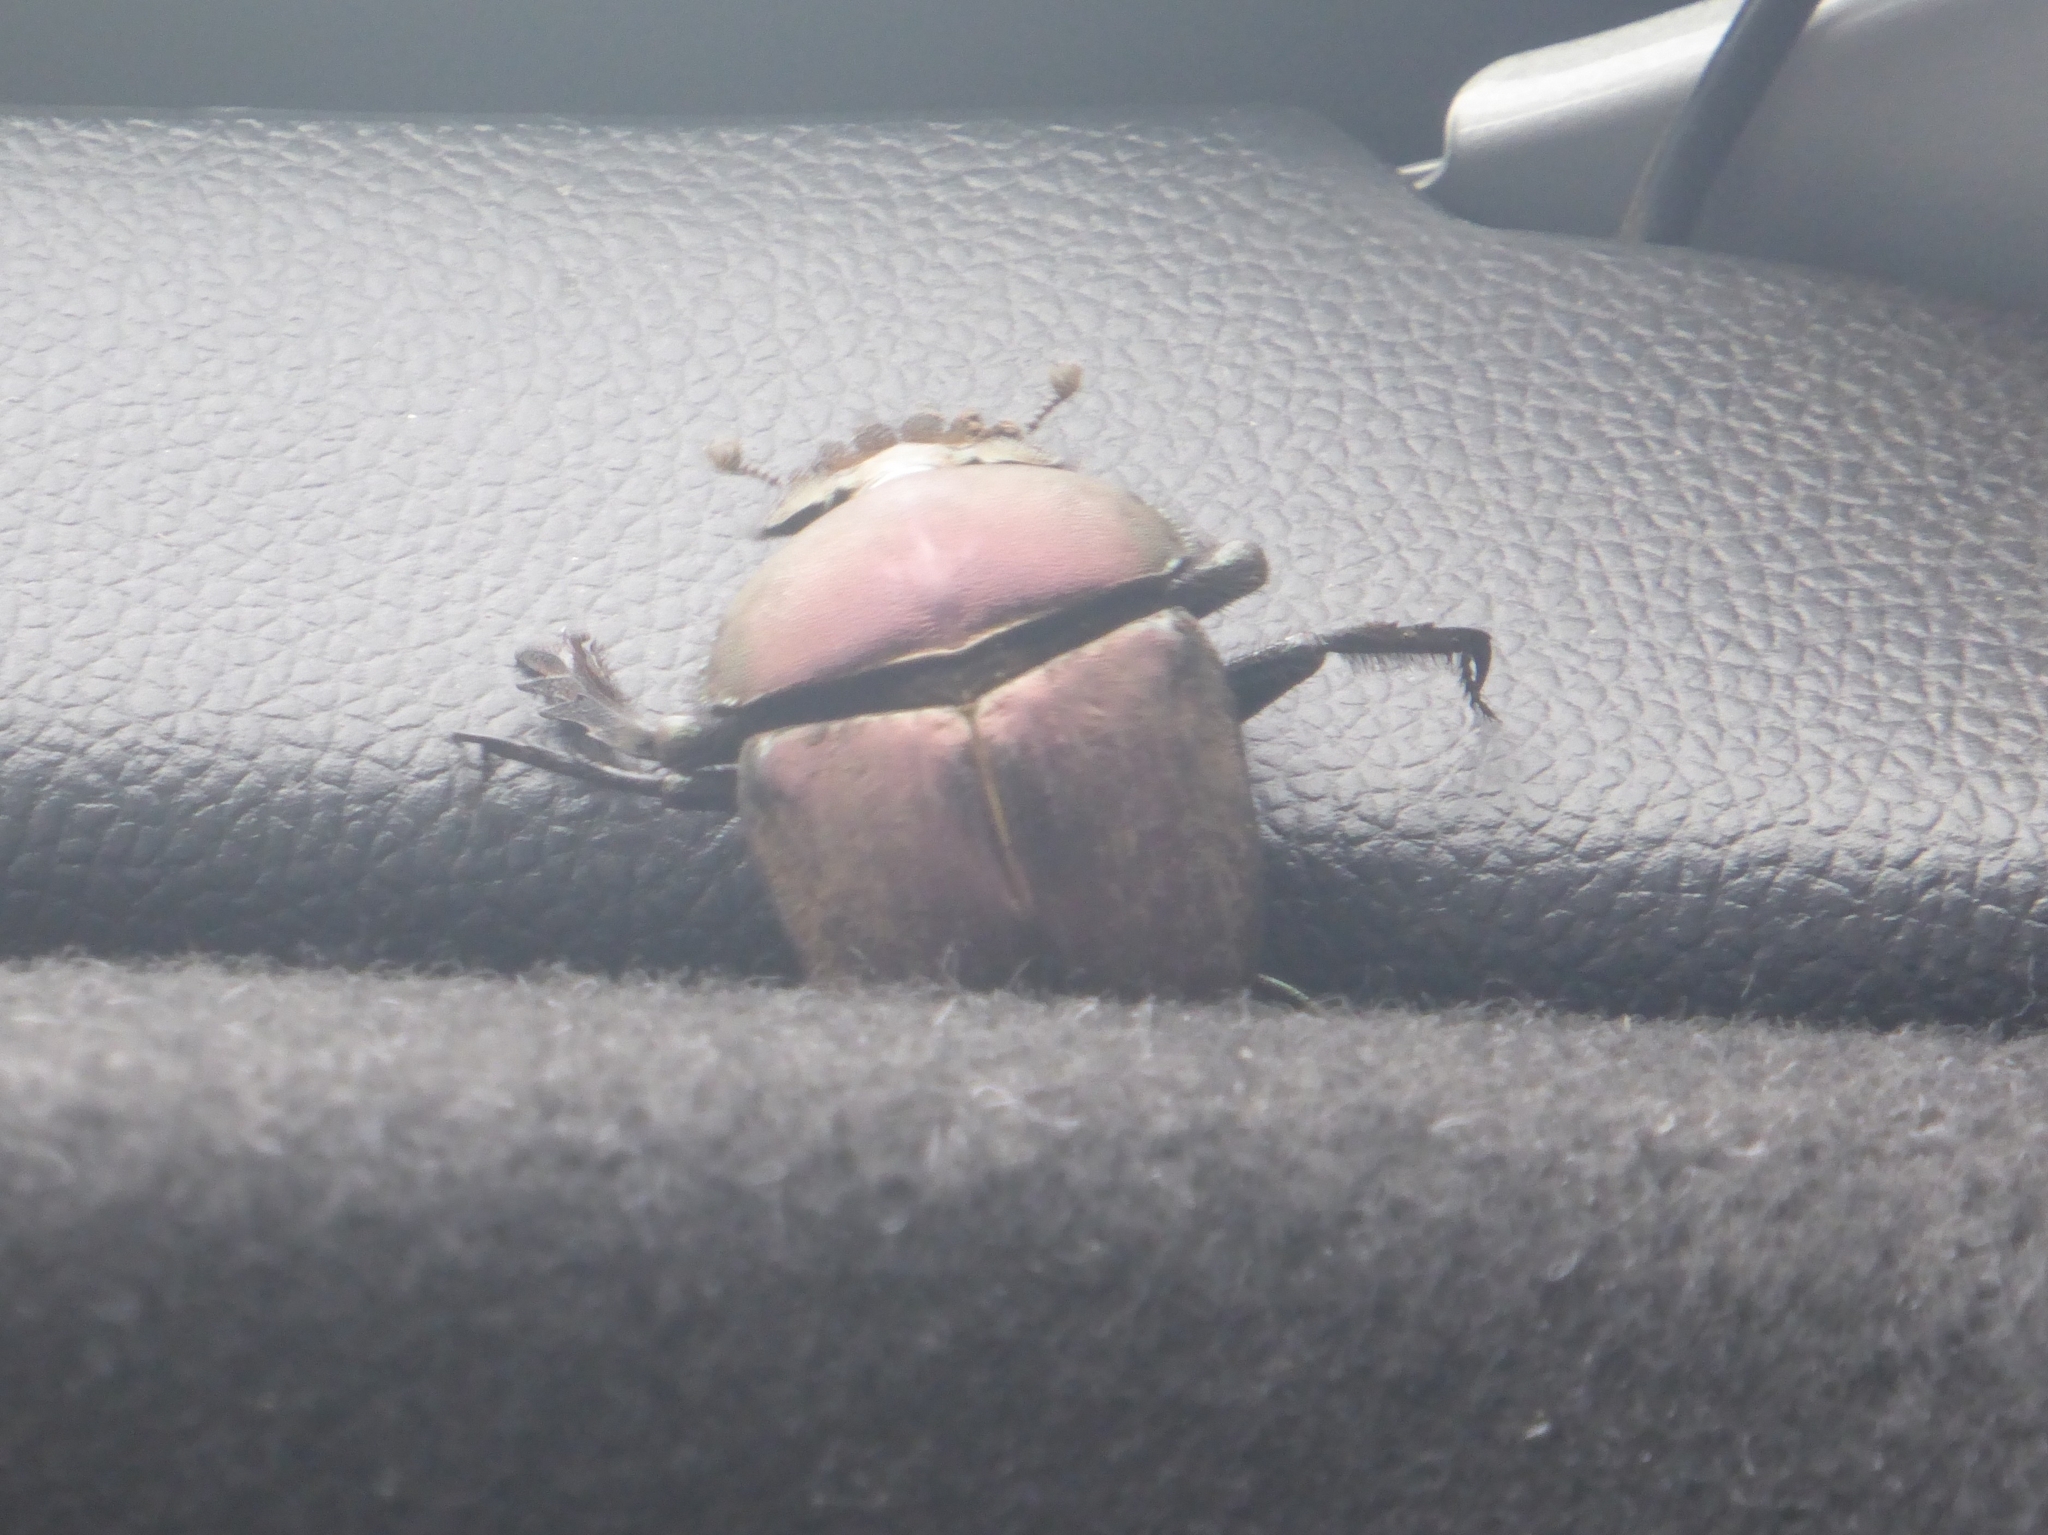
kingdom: Animalia
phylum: Arthropoda
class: Insecta
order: Coleoptera
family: Scarabaeidae
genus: Kheper
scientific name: Kheper nigroaeneus
